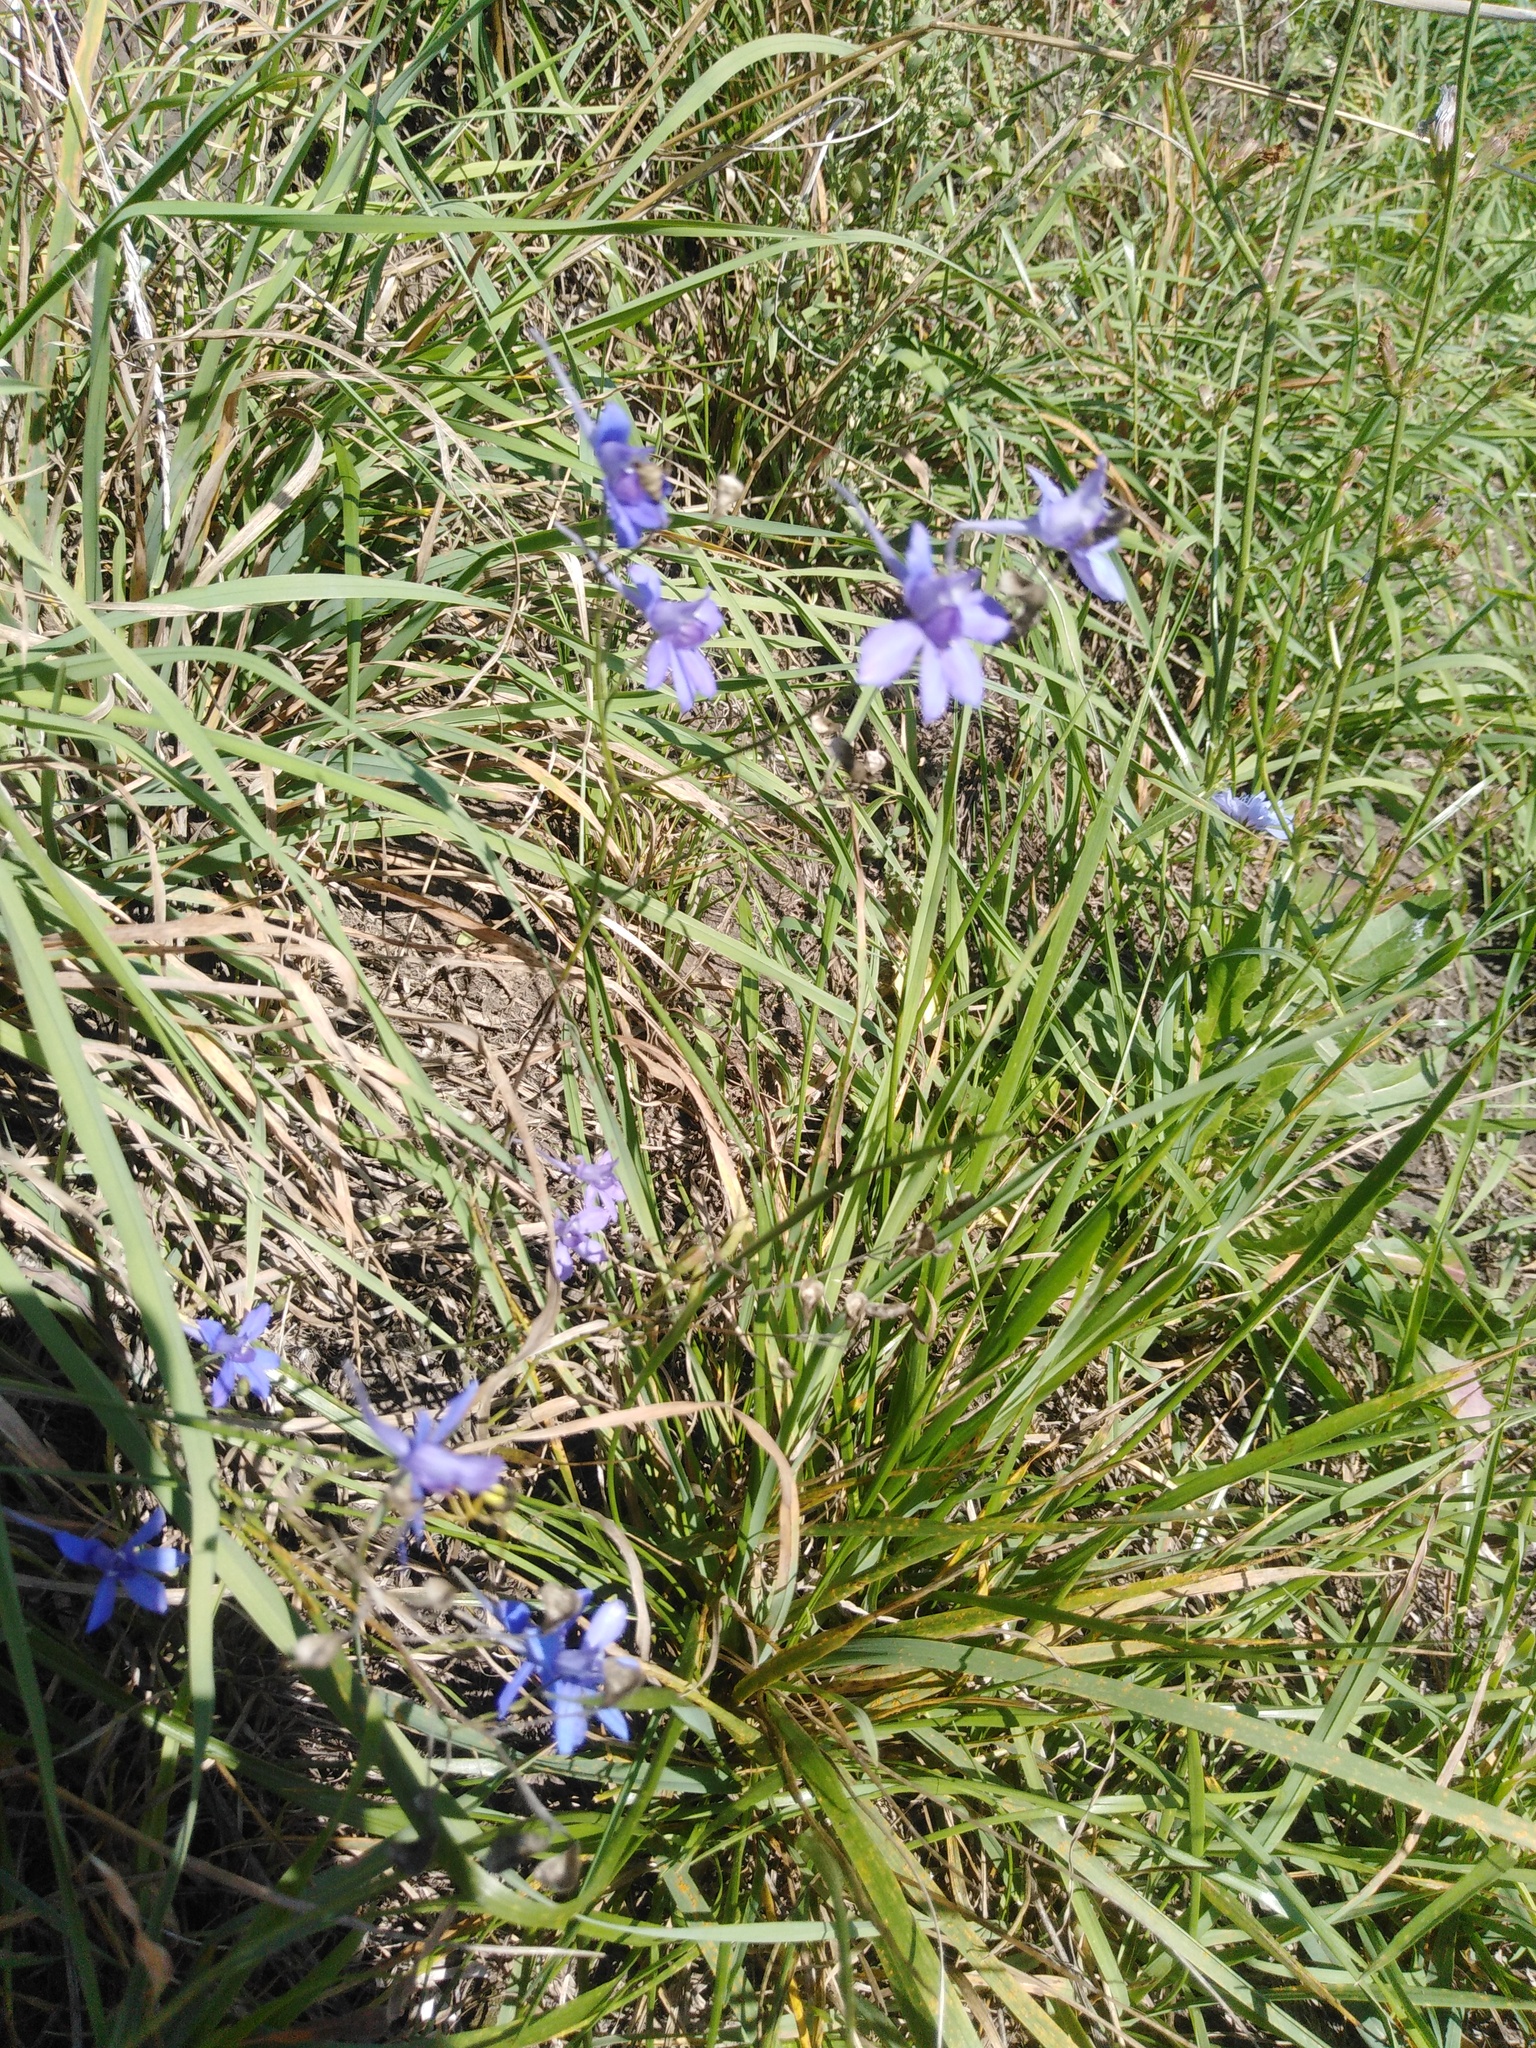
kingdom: Plantae
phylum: Tracheophyta
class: Magnoliopsida
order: Ranunculales
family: Ranunculaceae
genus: Delphinium
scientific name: Delphinium consolida
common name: Branching larkspur
